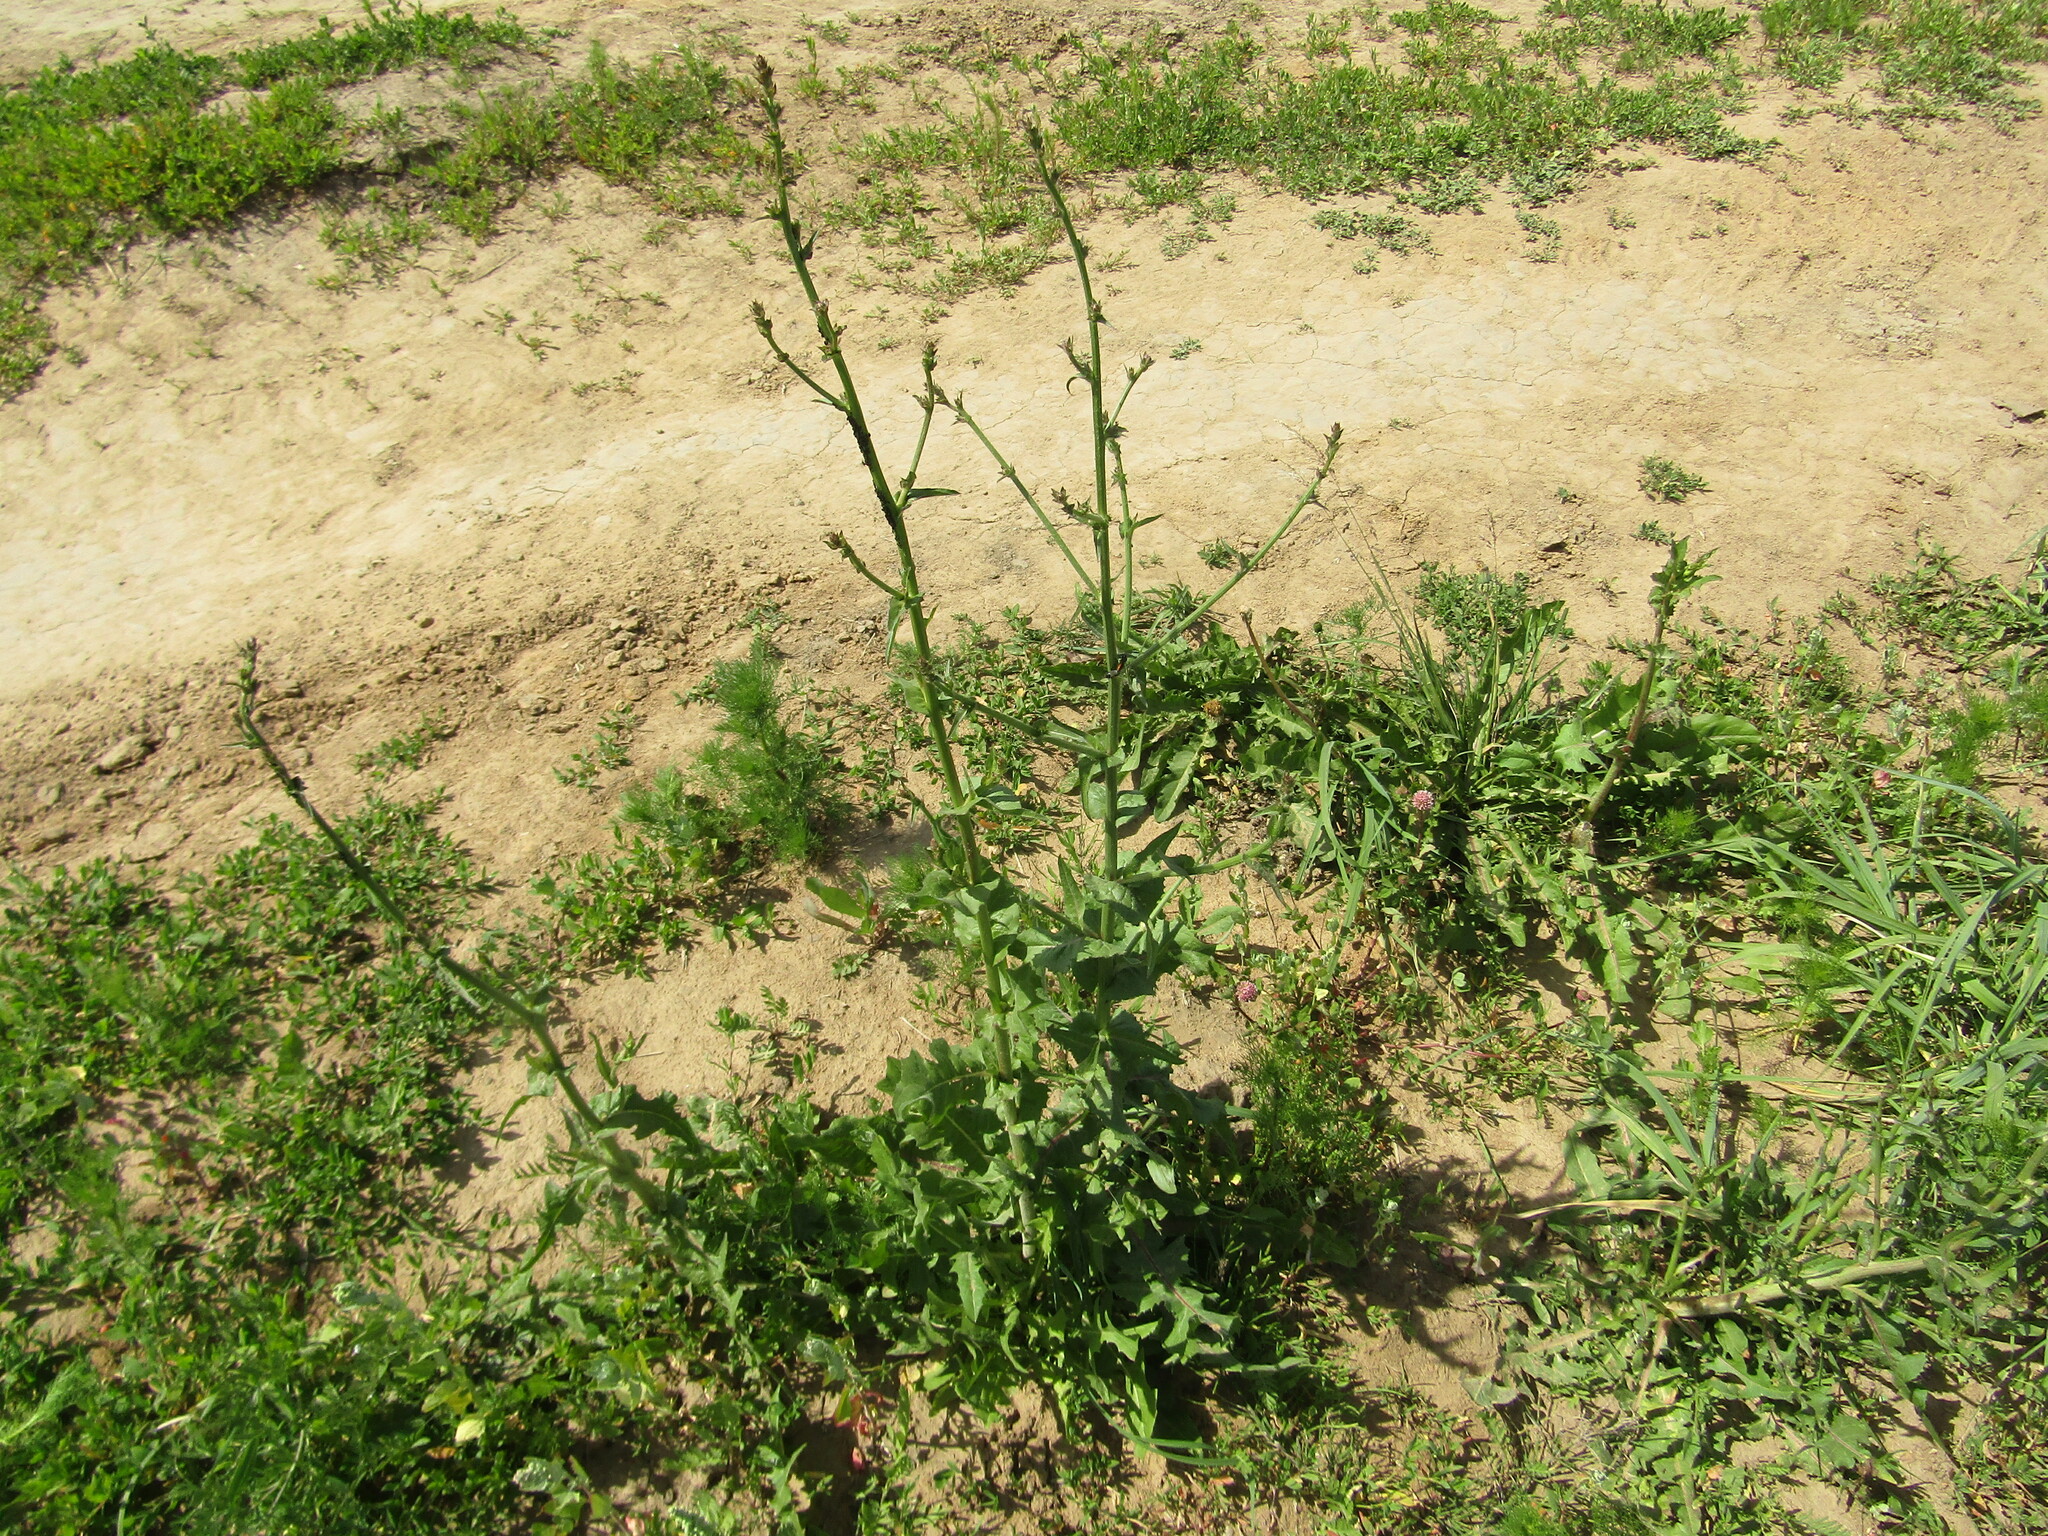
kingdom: Plantae
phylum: Tracheophyta
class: Magnoliopsida
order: Asterales
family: Asteraceae
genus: Cichorium
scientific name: Cichorium intybus
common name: Chicory
